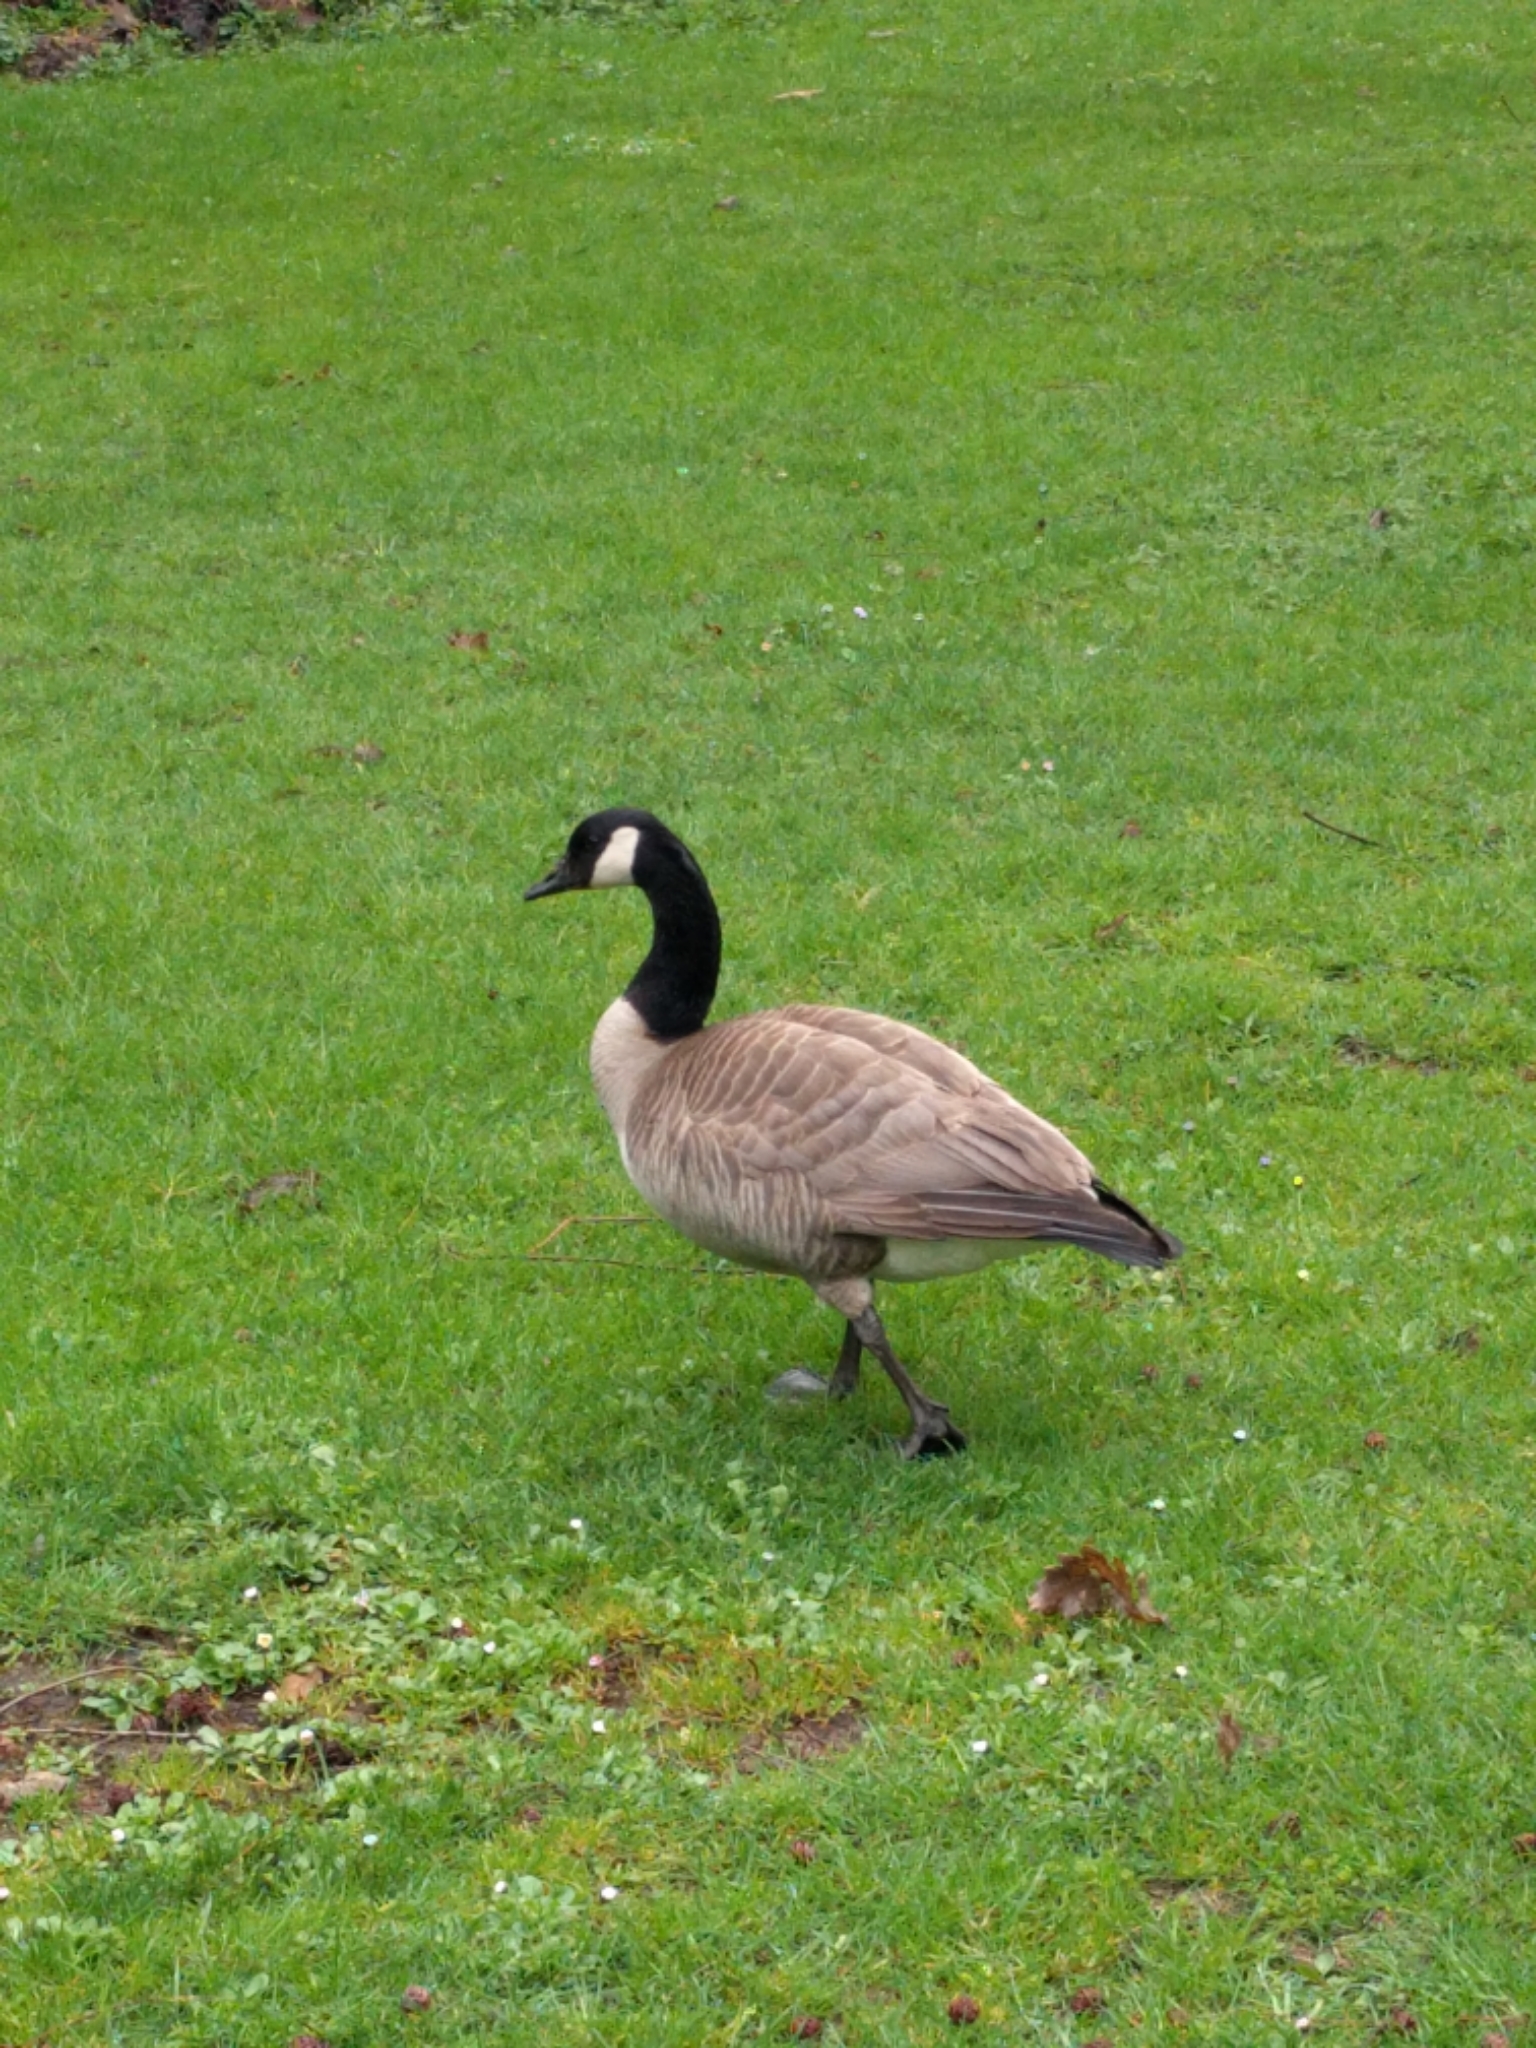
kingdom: Animalia
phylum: Chordata
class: Aves
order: Anseriformes
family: Anatidae
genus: Branta
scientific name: Branta canadensis
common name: Canada goose
